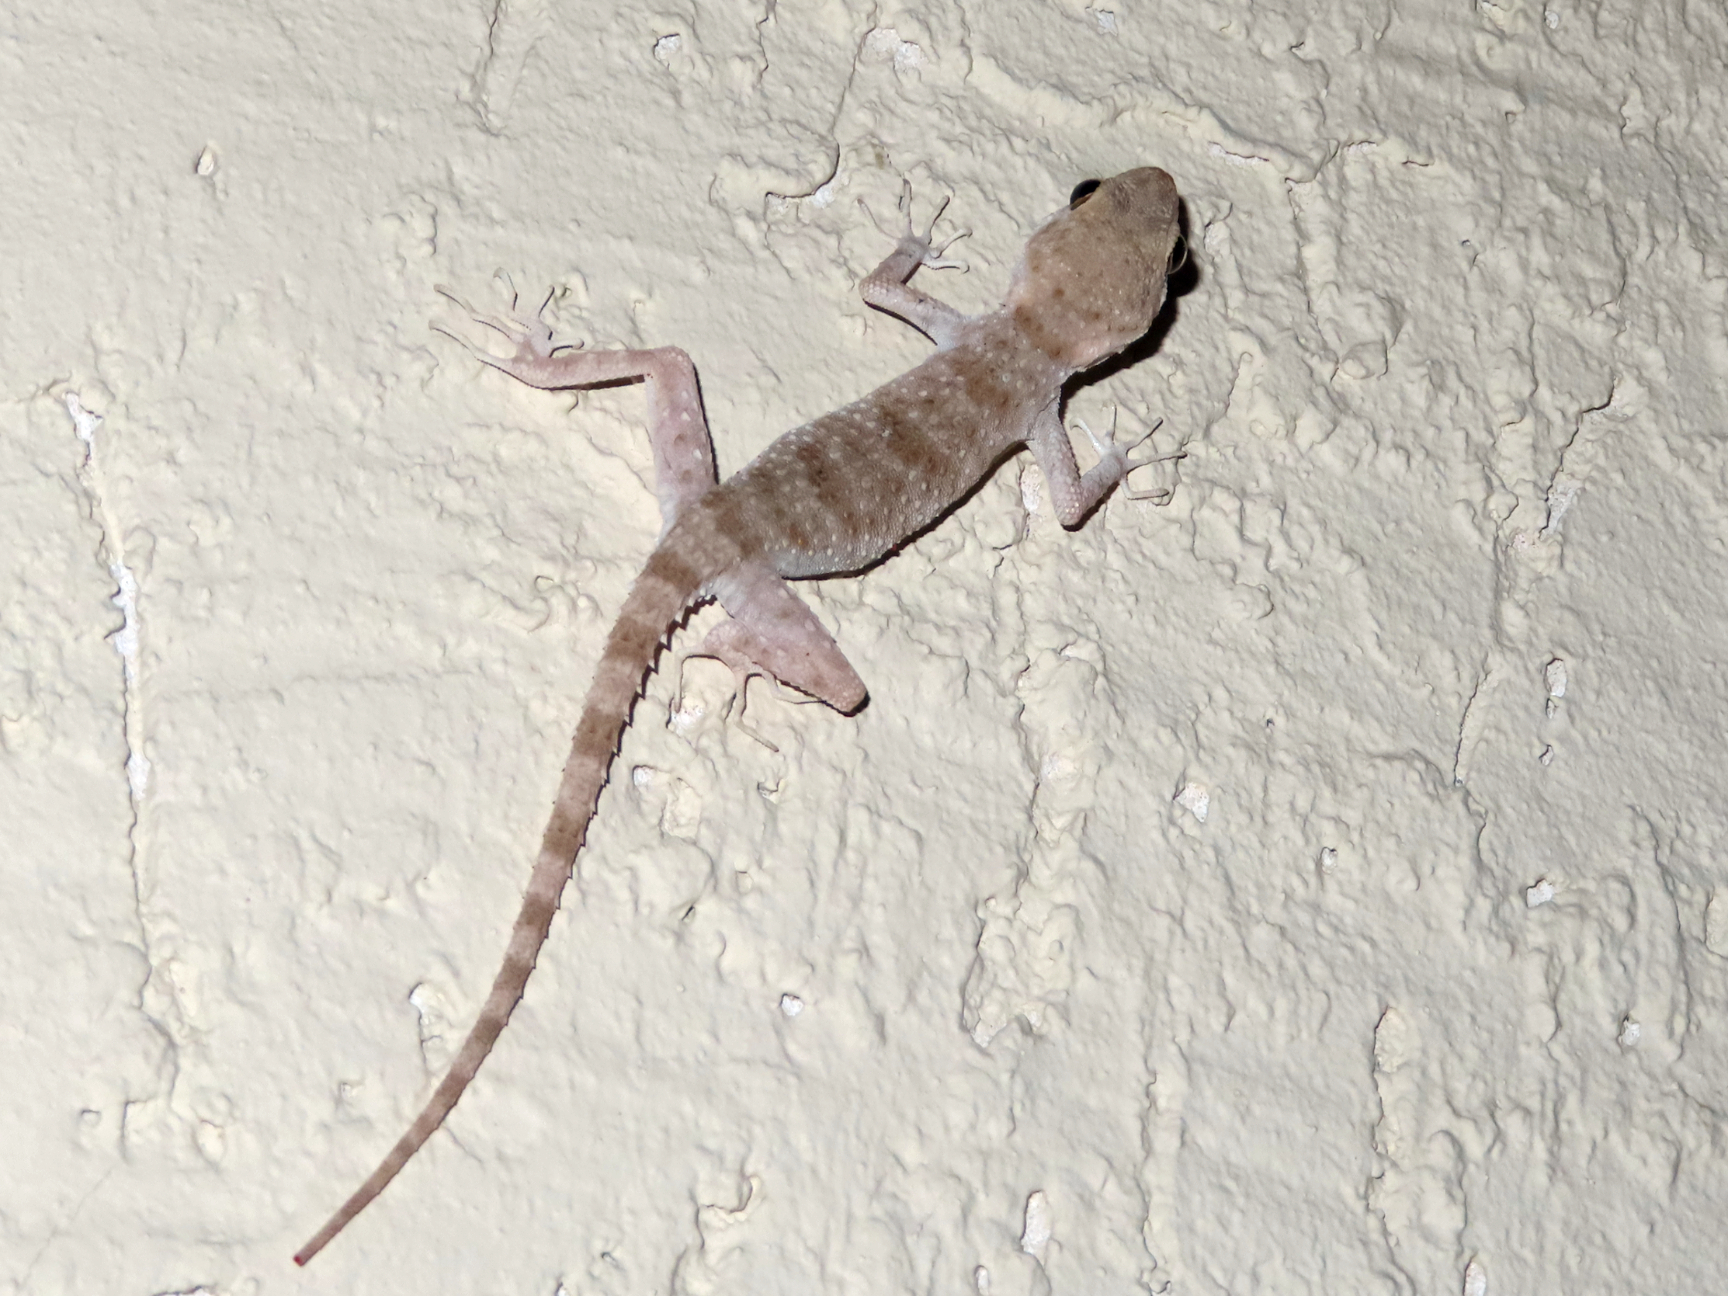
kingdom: Animalia
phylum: Chordata
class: Squamata
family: Gekkonidae
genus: Tenuidactylus
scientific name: Tenuidactylus caspius
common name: Caspian bent-toed gecko
